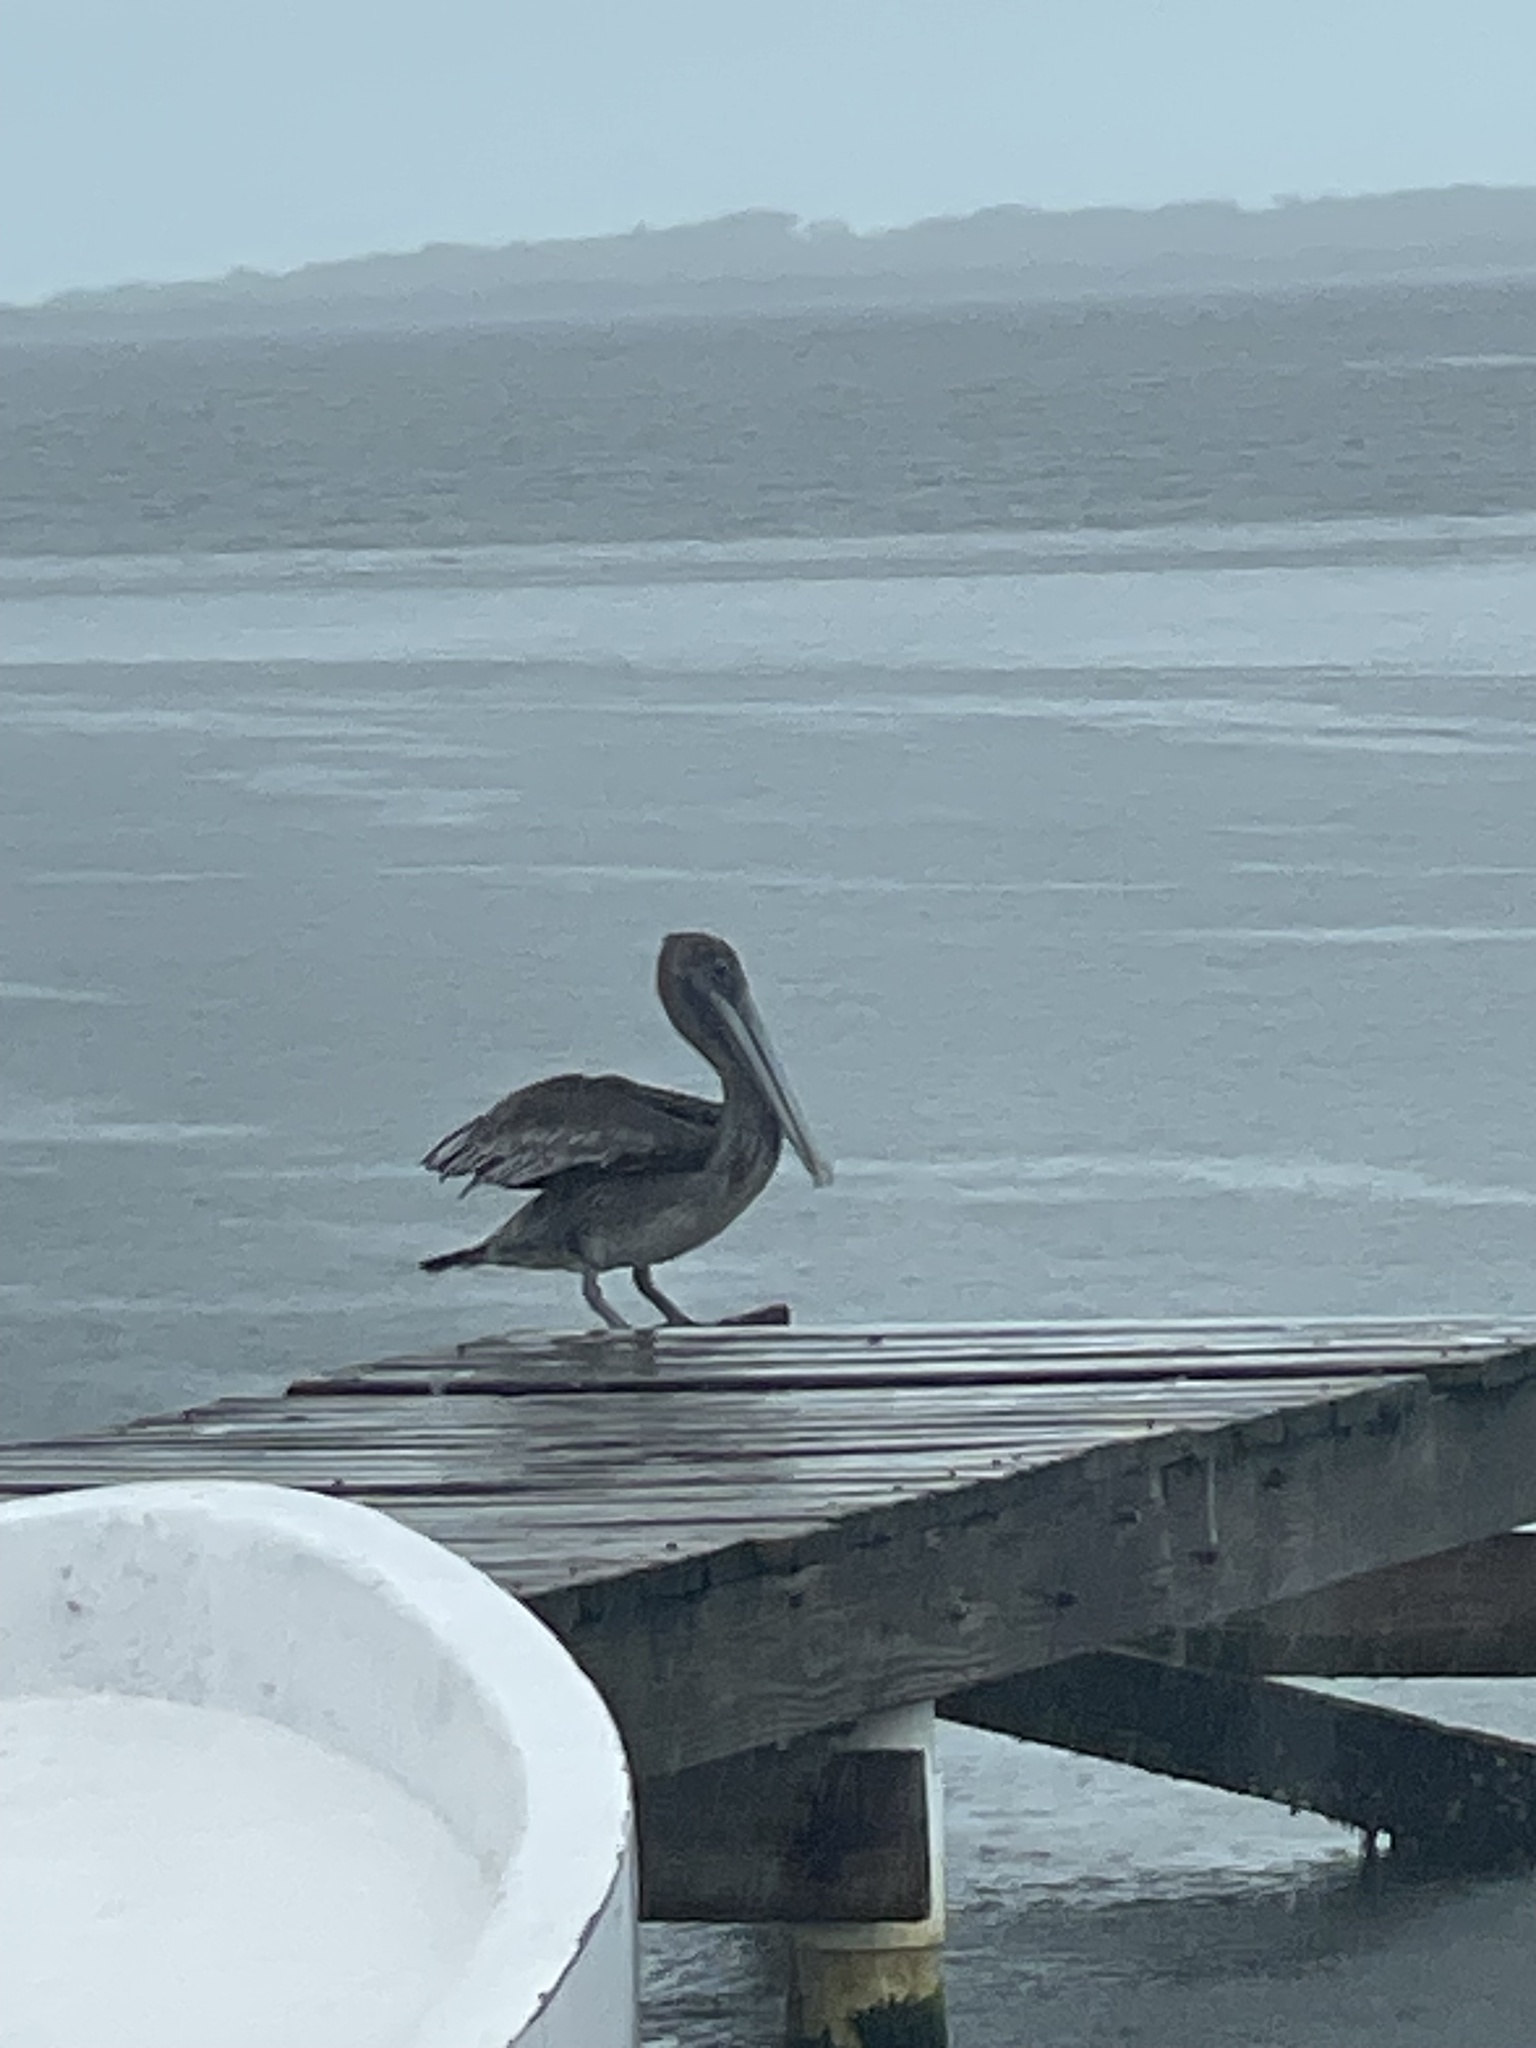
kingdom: Animalia
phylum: Chordata
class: Aves
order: Pelecaniformes
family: Pelecanidae
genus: Pelecanus
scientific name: Pelecanus occidentalis
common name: Brown pelican
